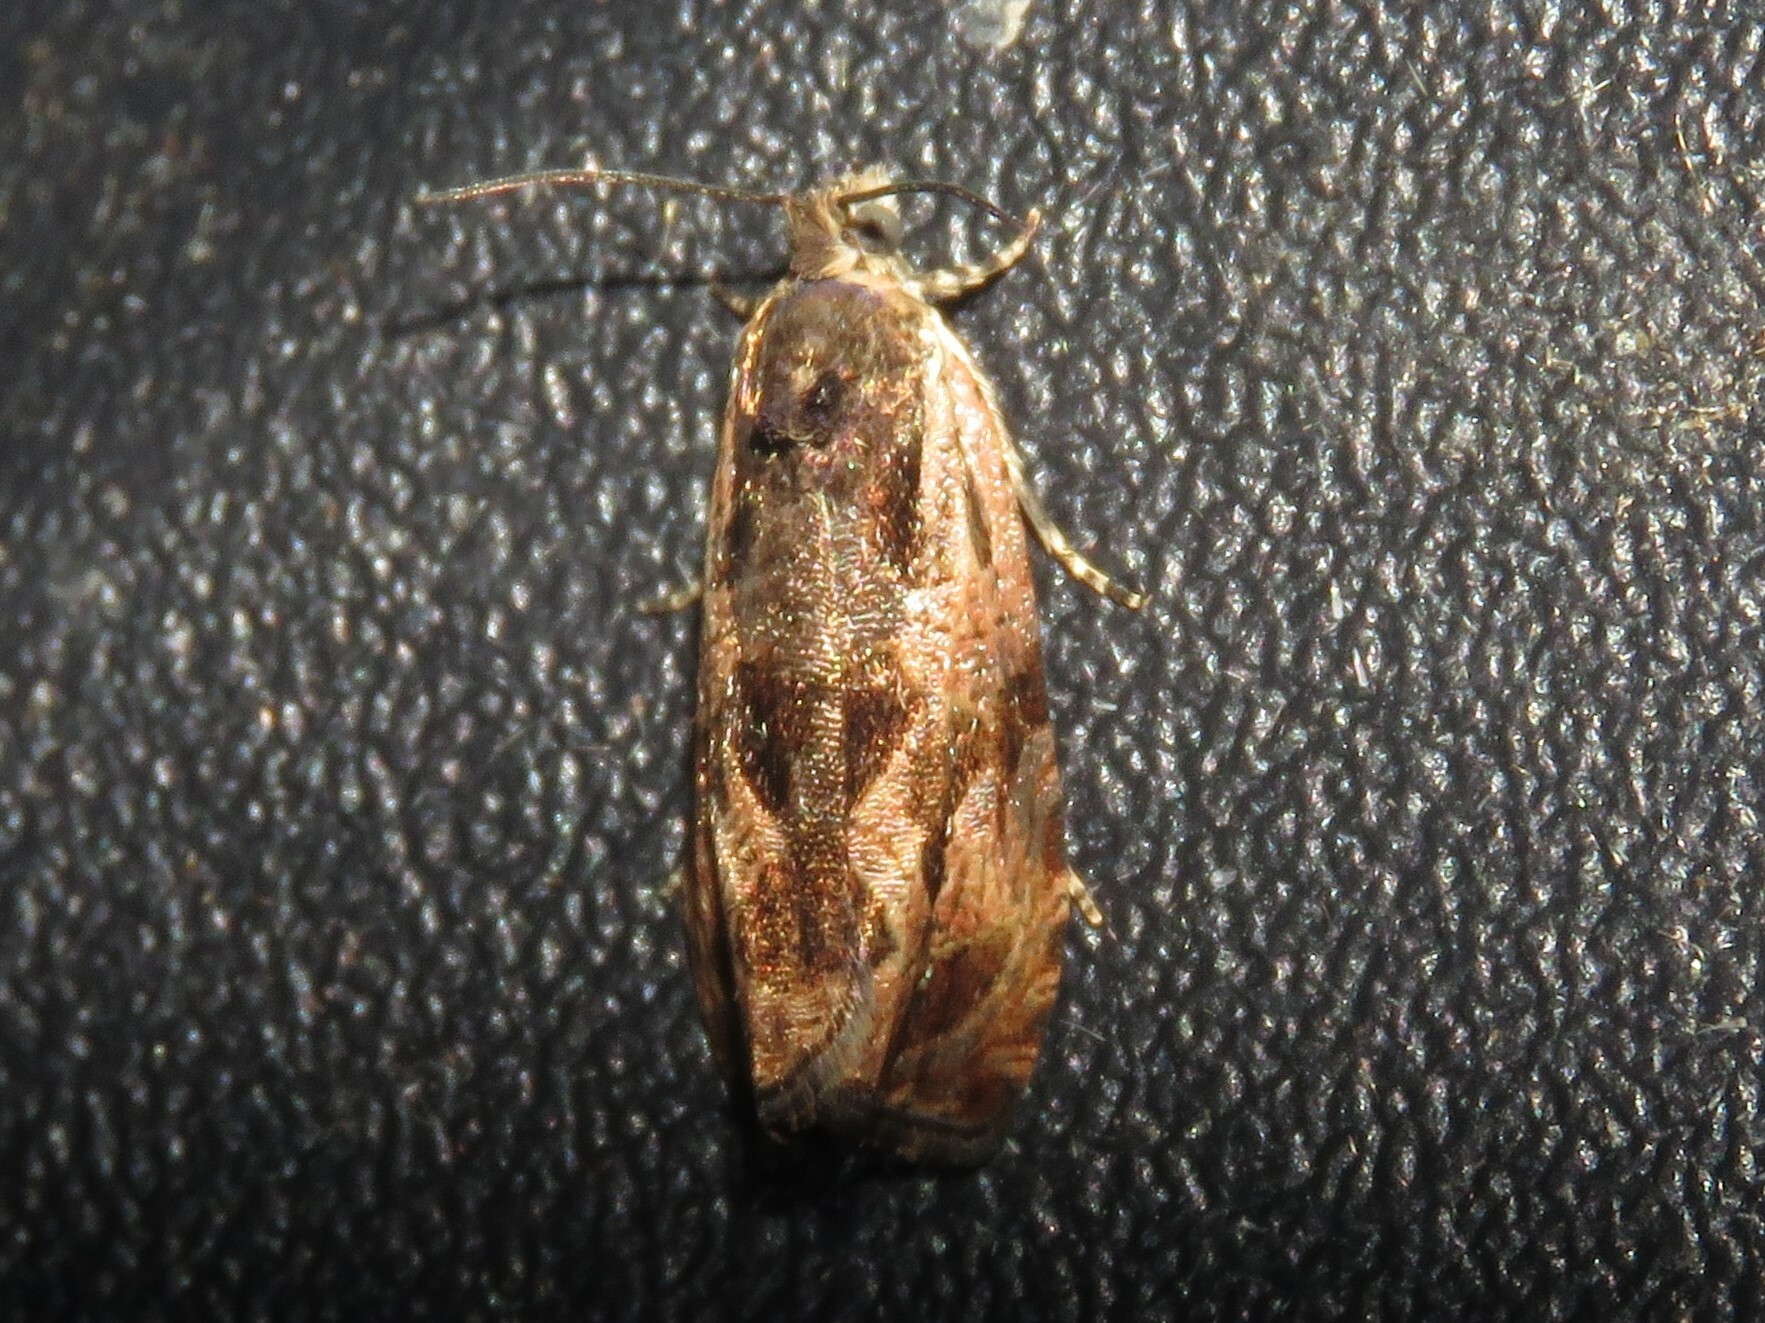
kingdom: Animalia
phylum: Arthropoda
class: Insecta
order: Lepidoptera
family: Tortricidae
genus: Olethreutes
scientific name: Olethreutes nigranum
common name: Variable nigranum moth
